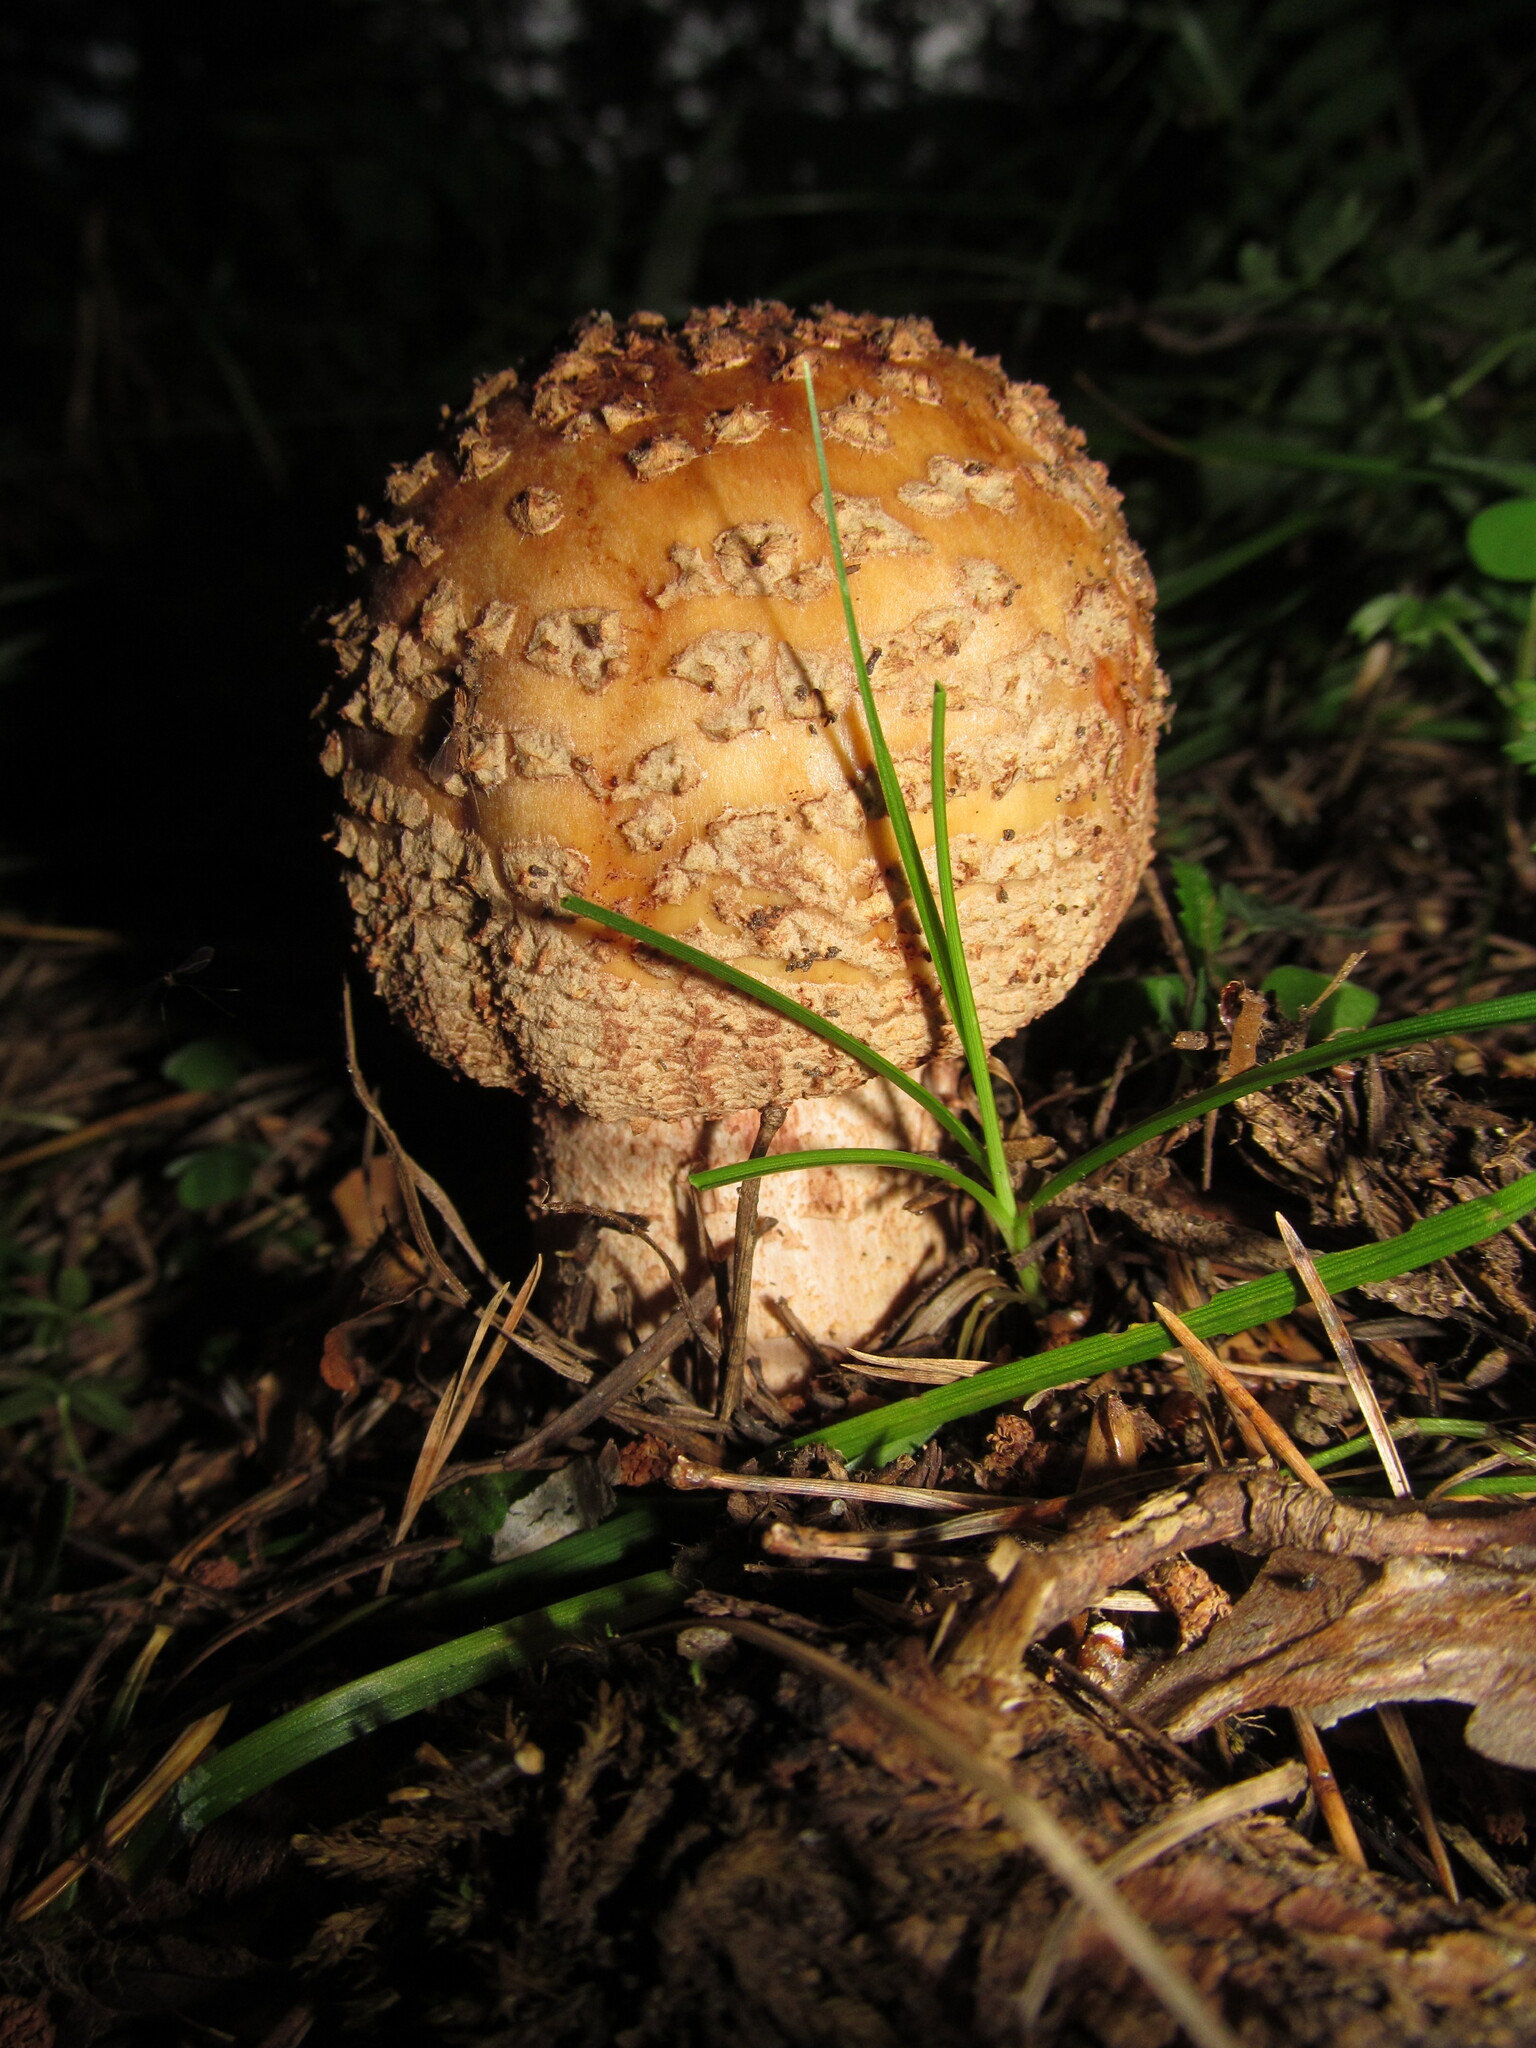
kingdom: Fungi
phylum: Basidiomycota
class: Agaricomycetes
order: Agaricales
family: Amanitaceae
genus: Amanita
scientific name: Amanita rubescens
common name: Blusher
